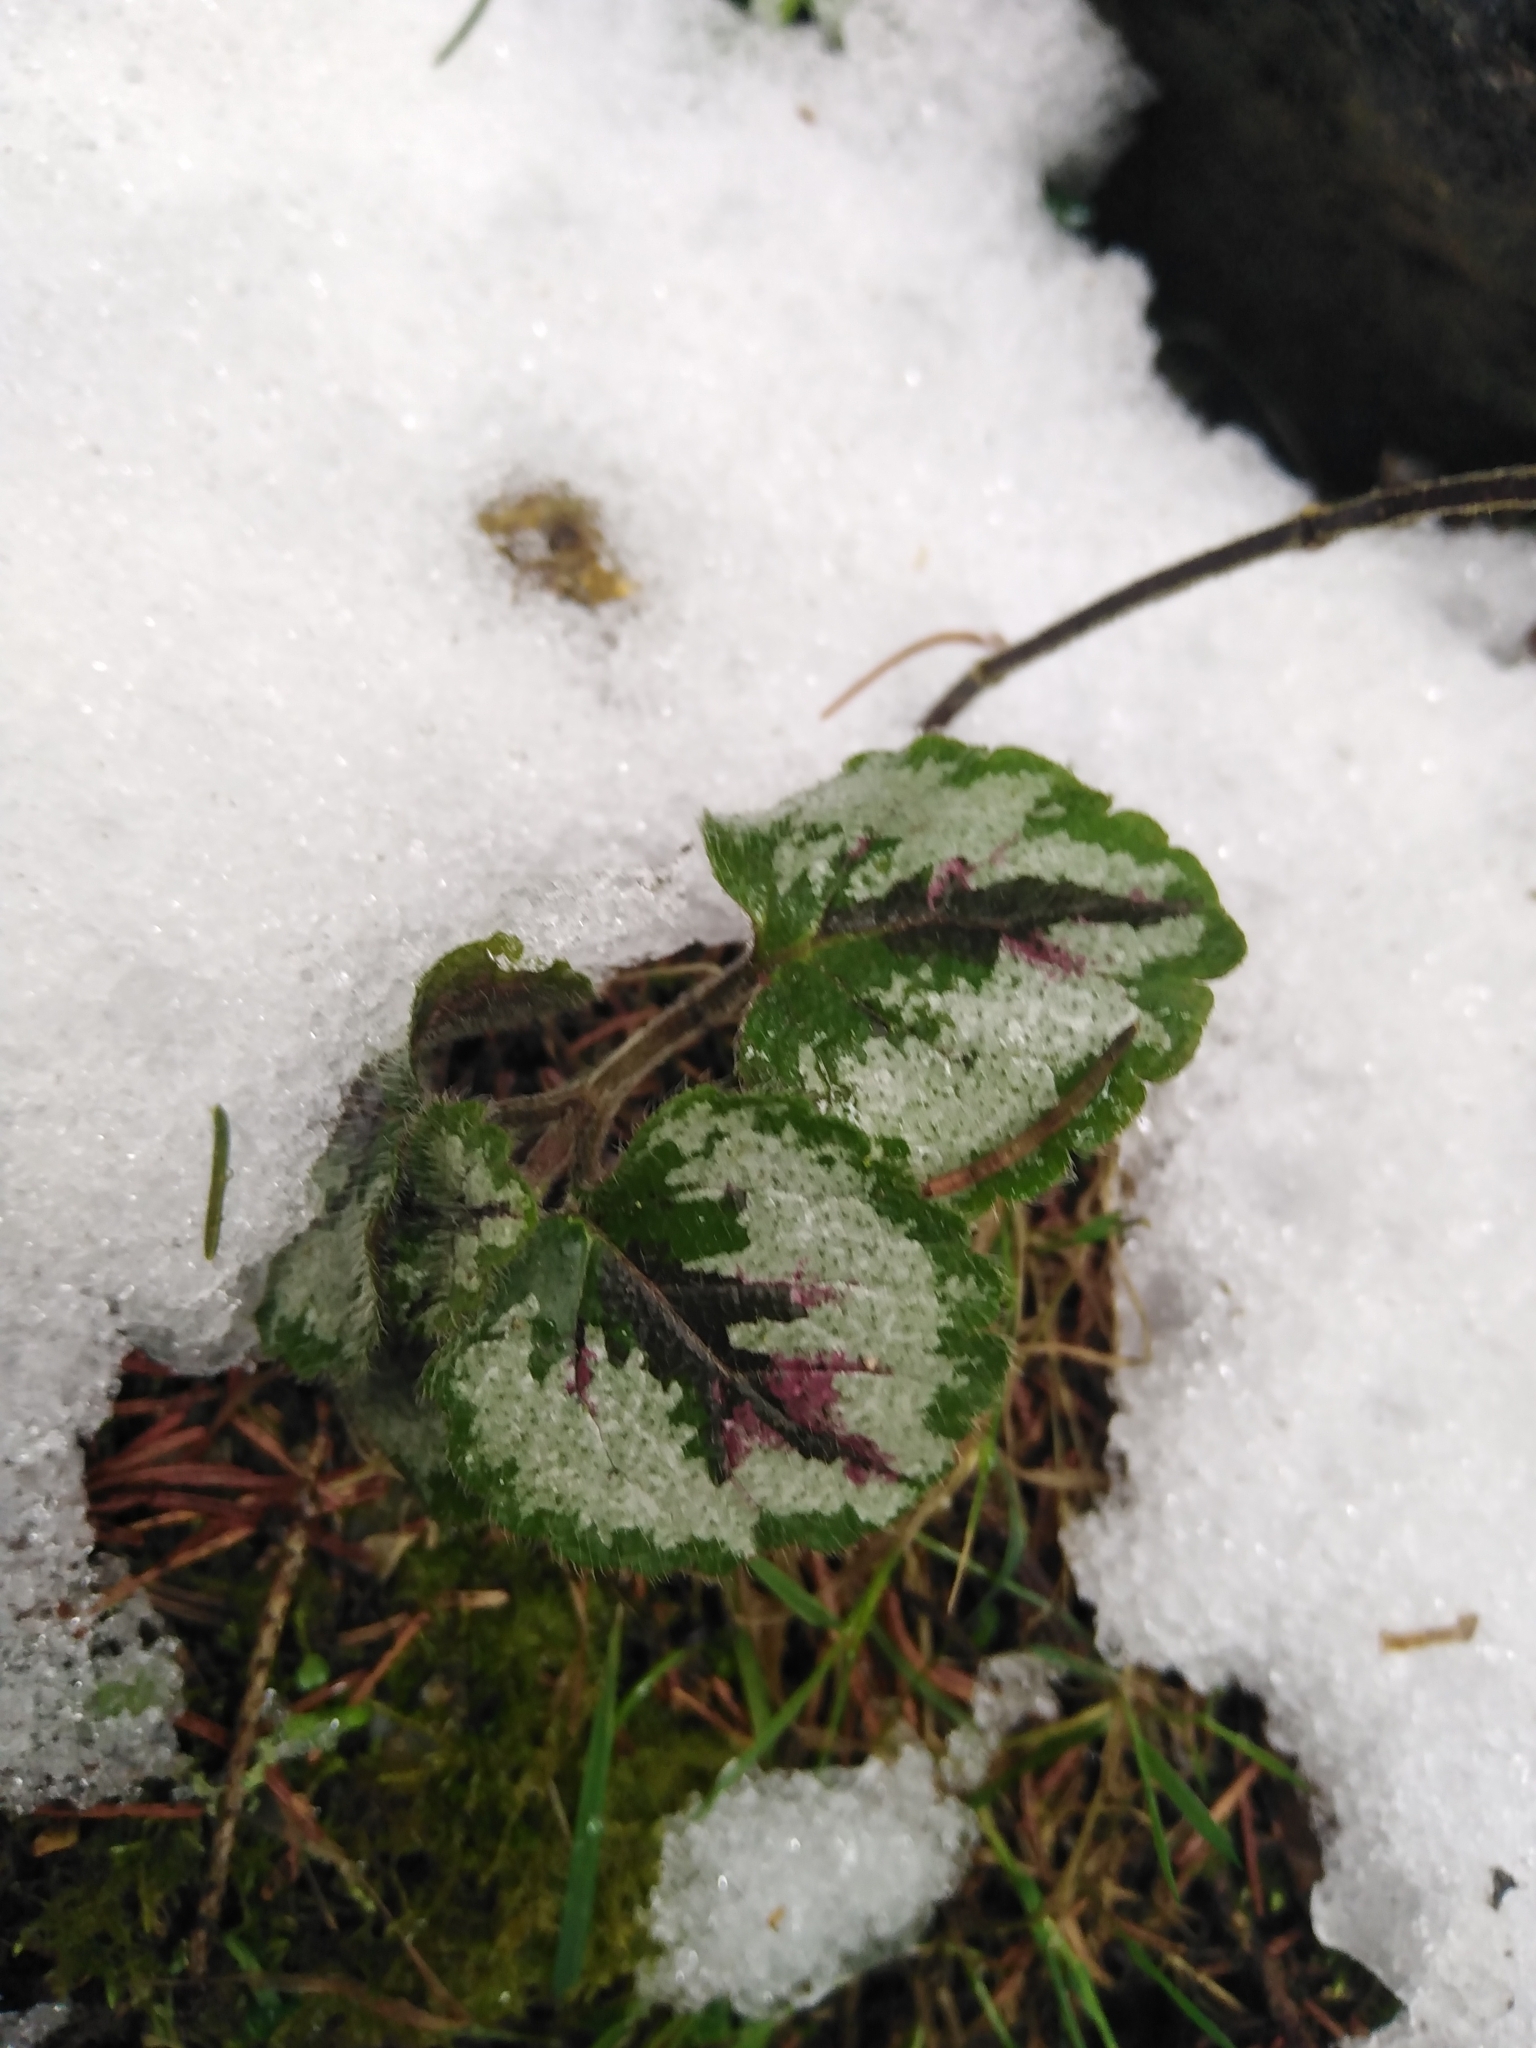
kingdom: Plantae
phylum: Tracheophyta
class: Magnoliopsida
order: Lamiales
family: Lamiaceae
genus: Lamium
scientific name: Lamium galeobdolon
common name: Yellow archangel
